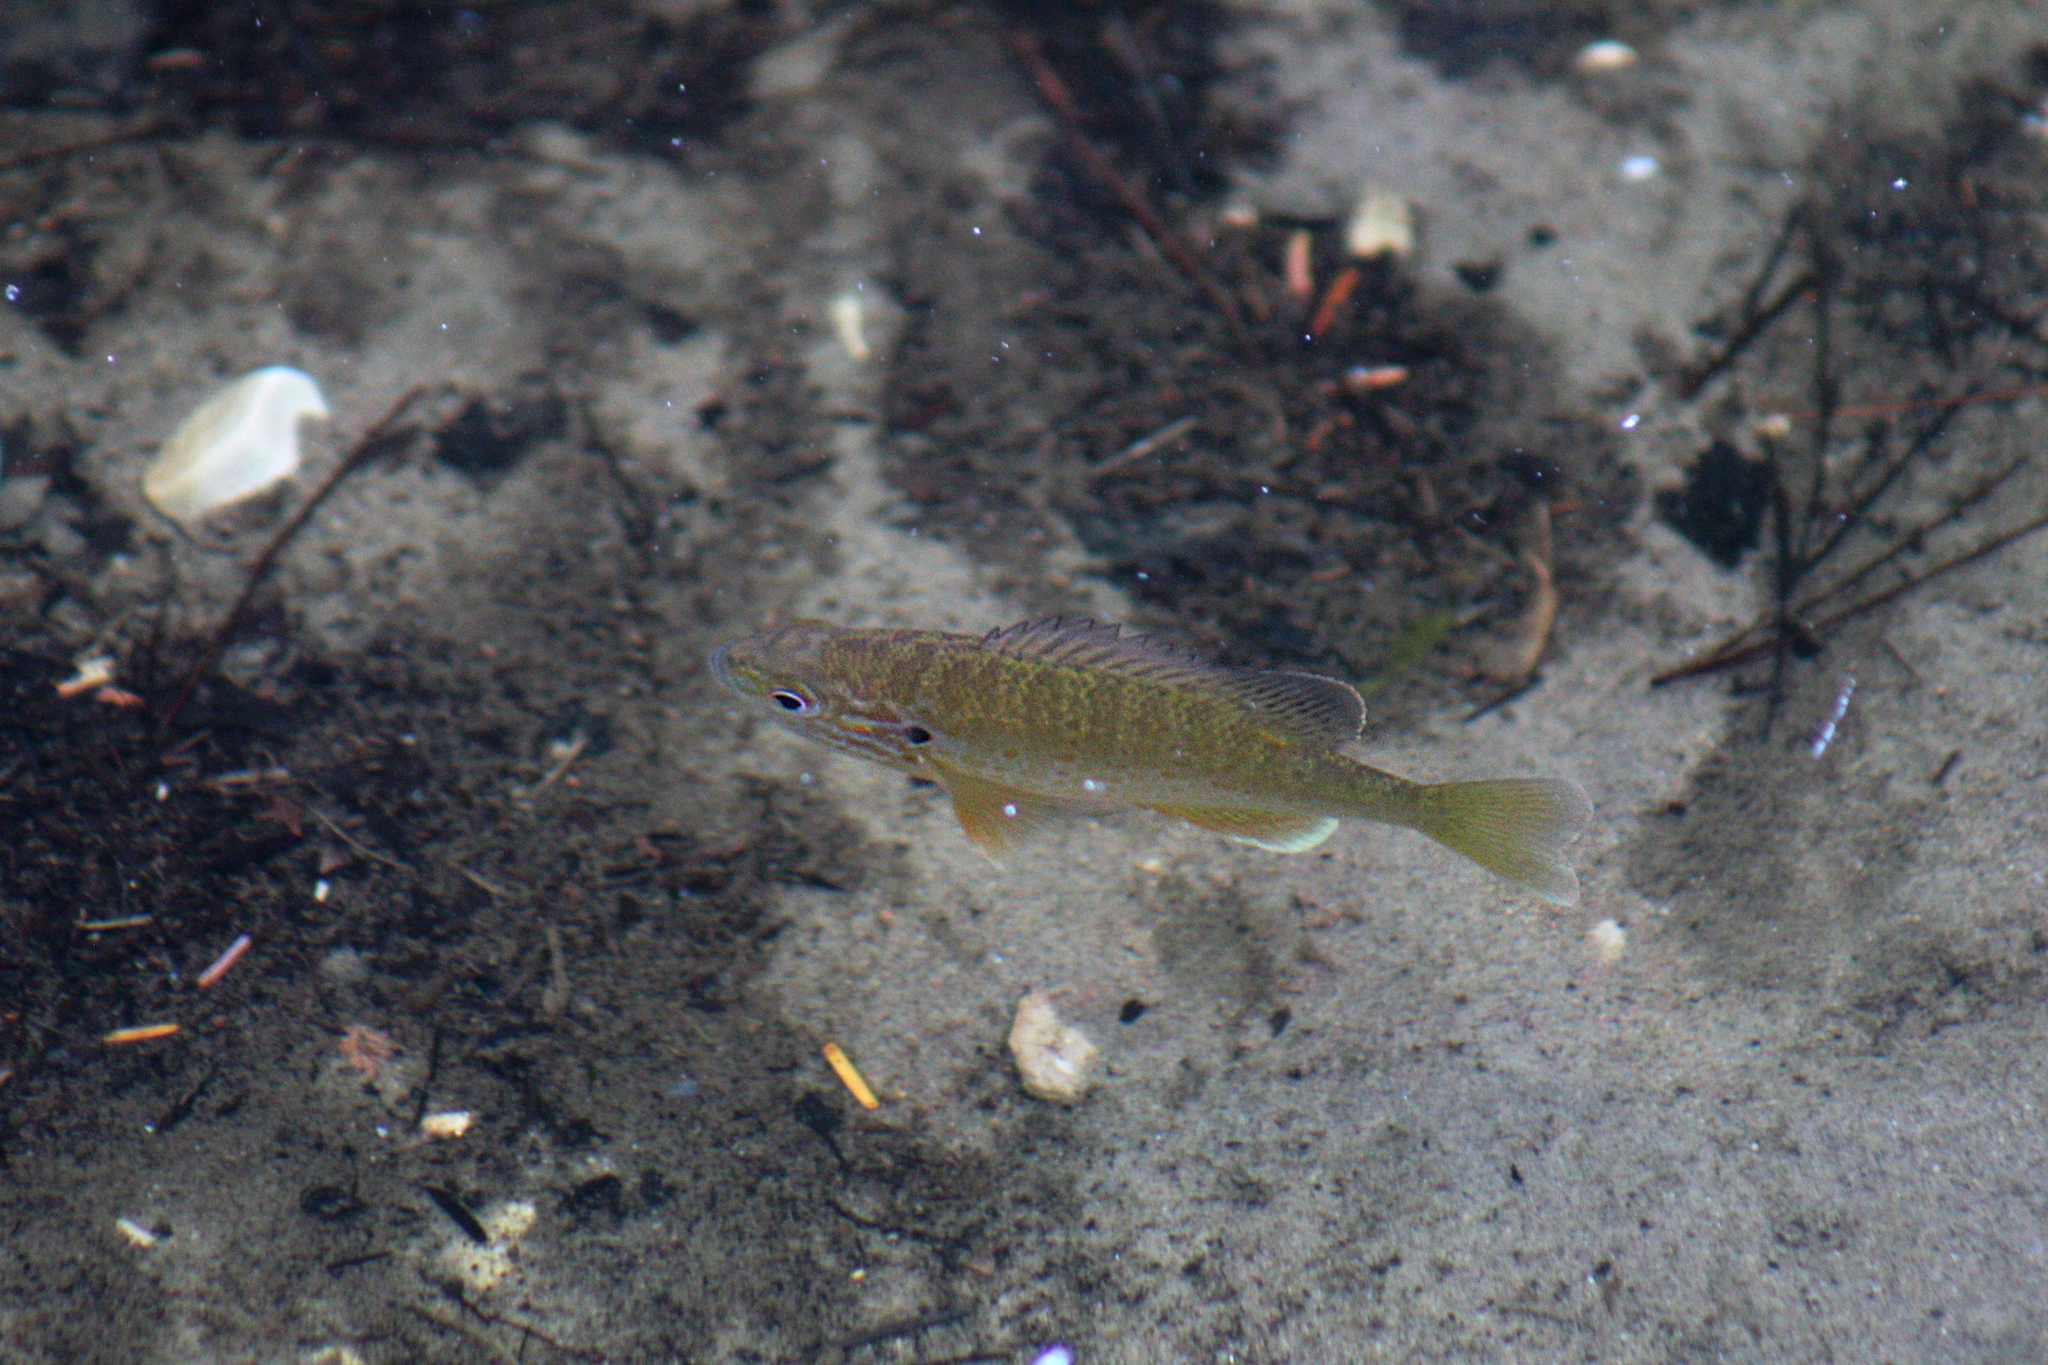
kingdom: Animalia
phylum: Chordata
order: Perciformes
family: Centrarchidae
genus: Lepomis
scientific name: Lepomis gibbosus
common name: Pumpkinseed
